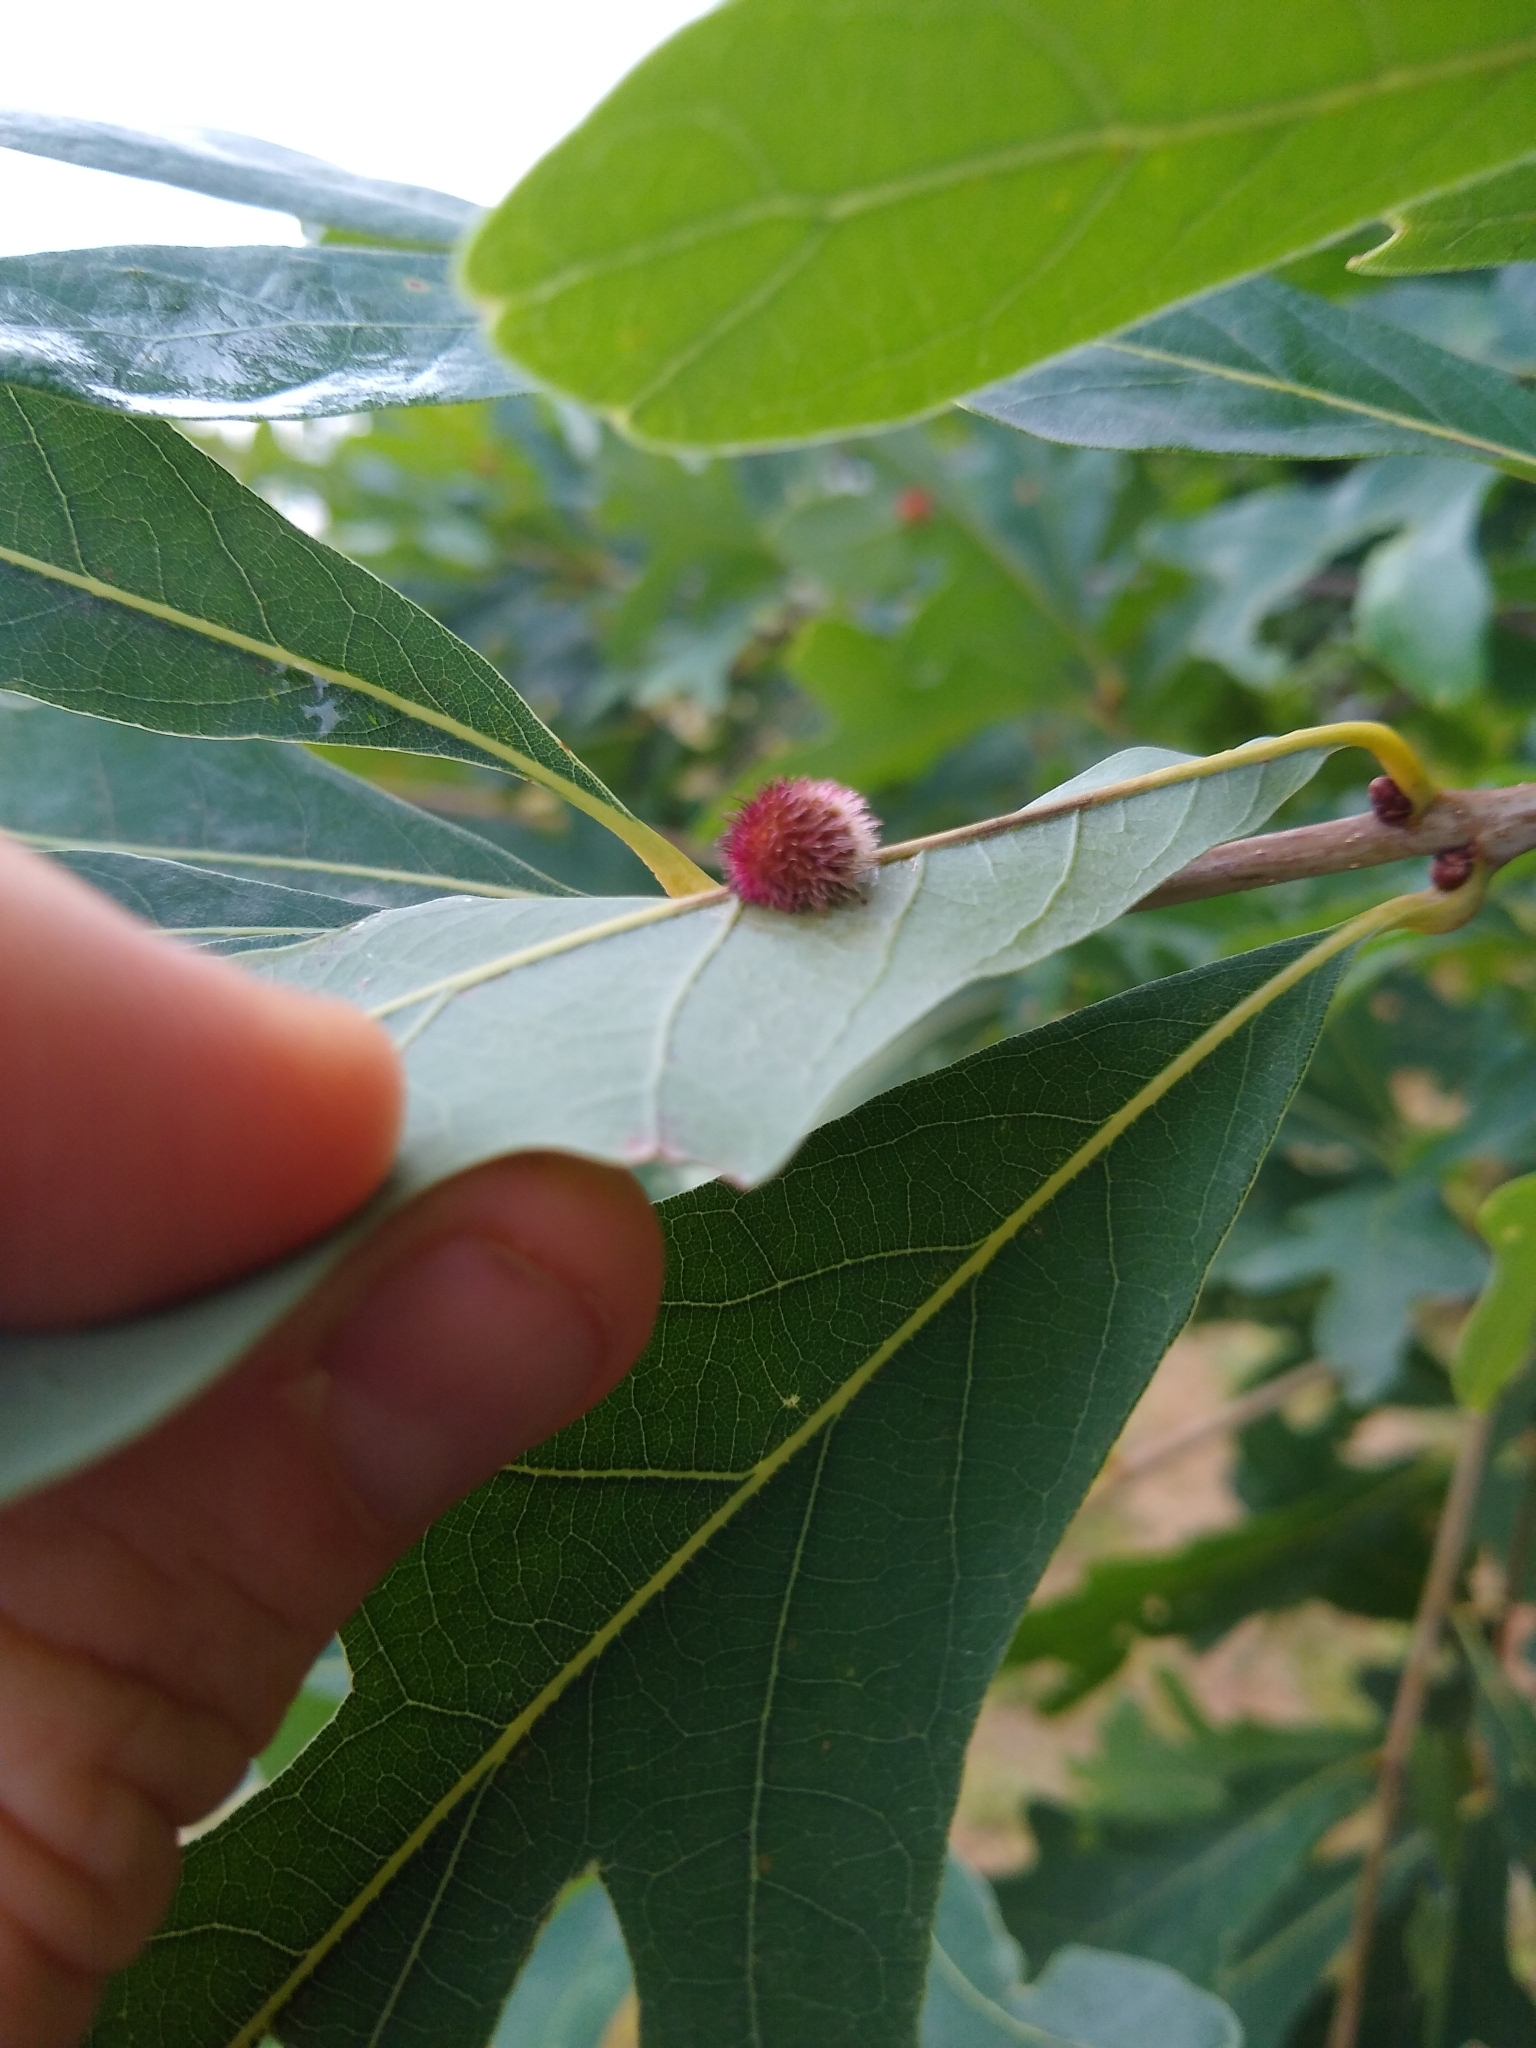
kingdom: Animalia
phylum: Arthropoda
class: Insecta
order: Hymenoptera
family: Cynipidae
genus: Acraspis
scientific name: Acraspis erinacei
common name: Hedgehog gall wasp
